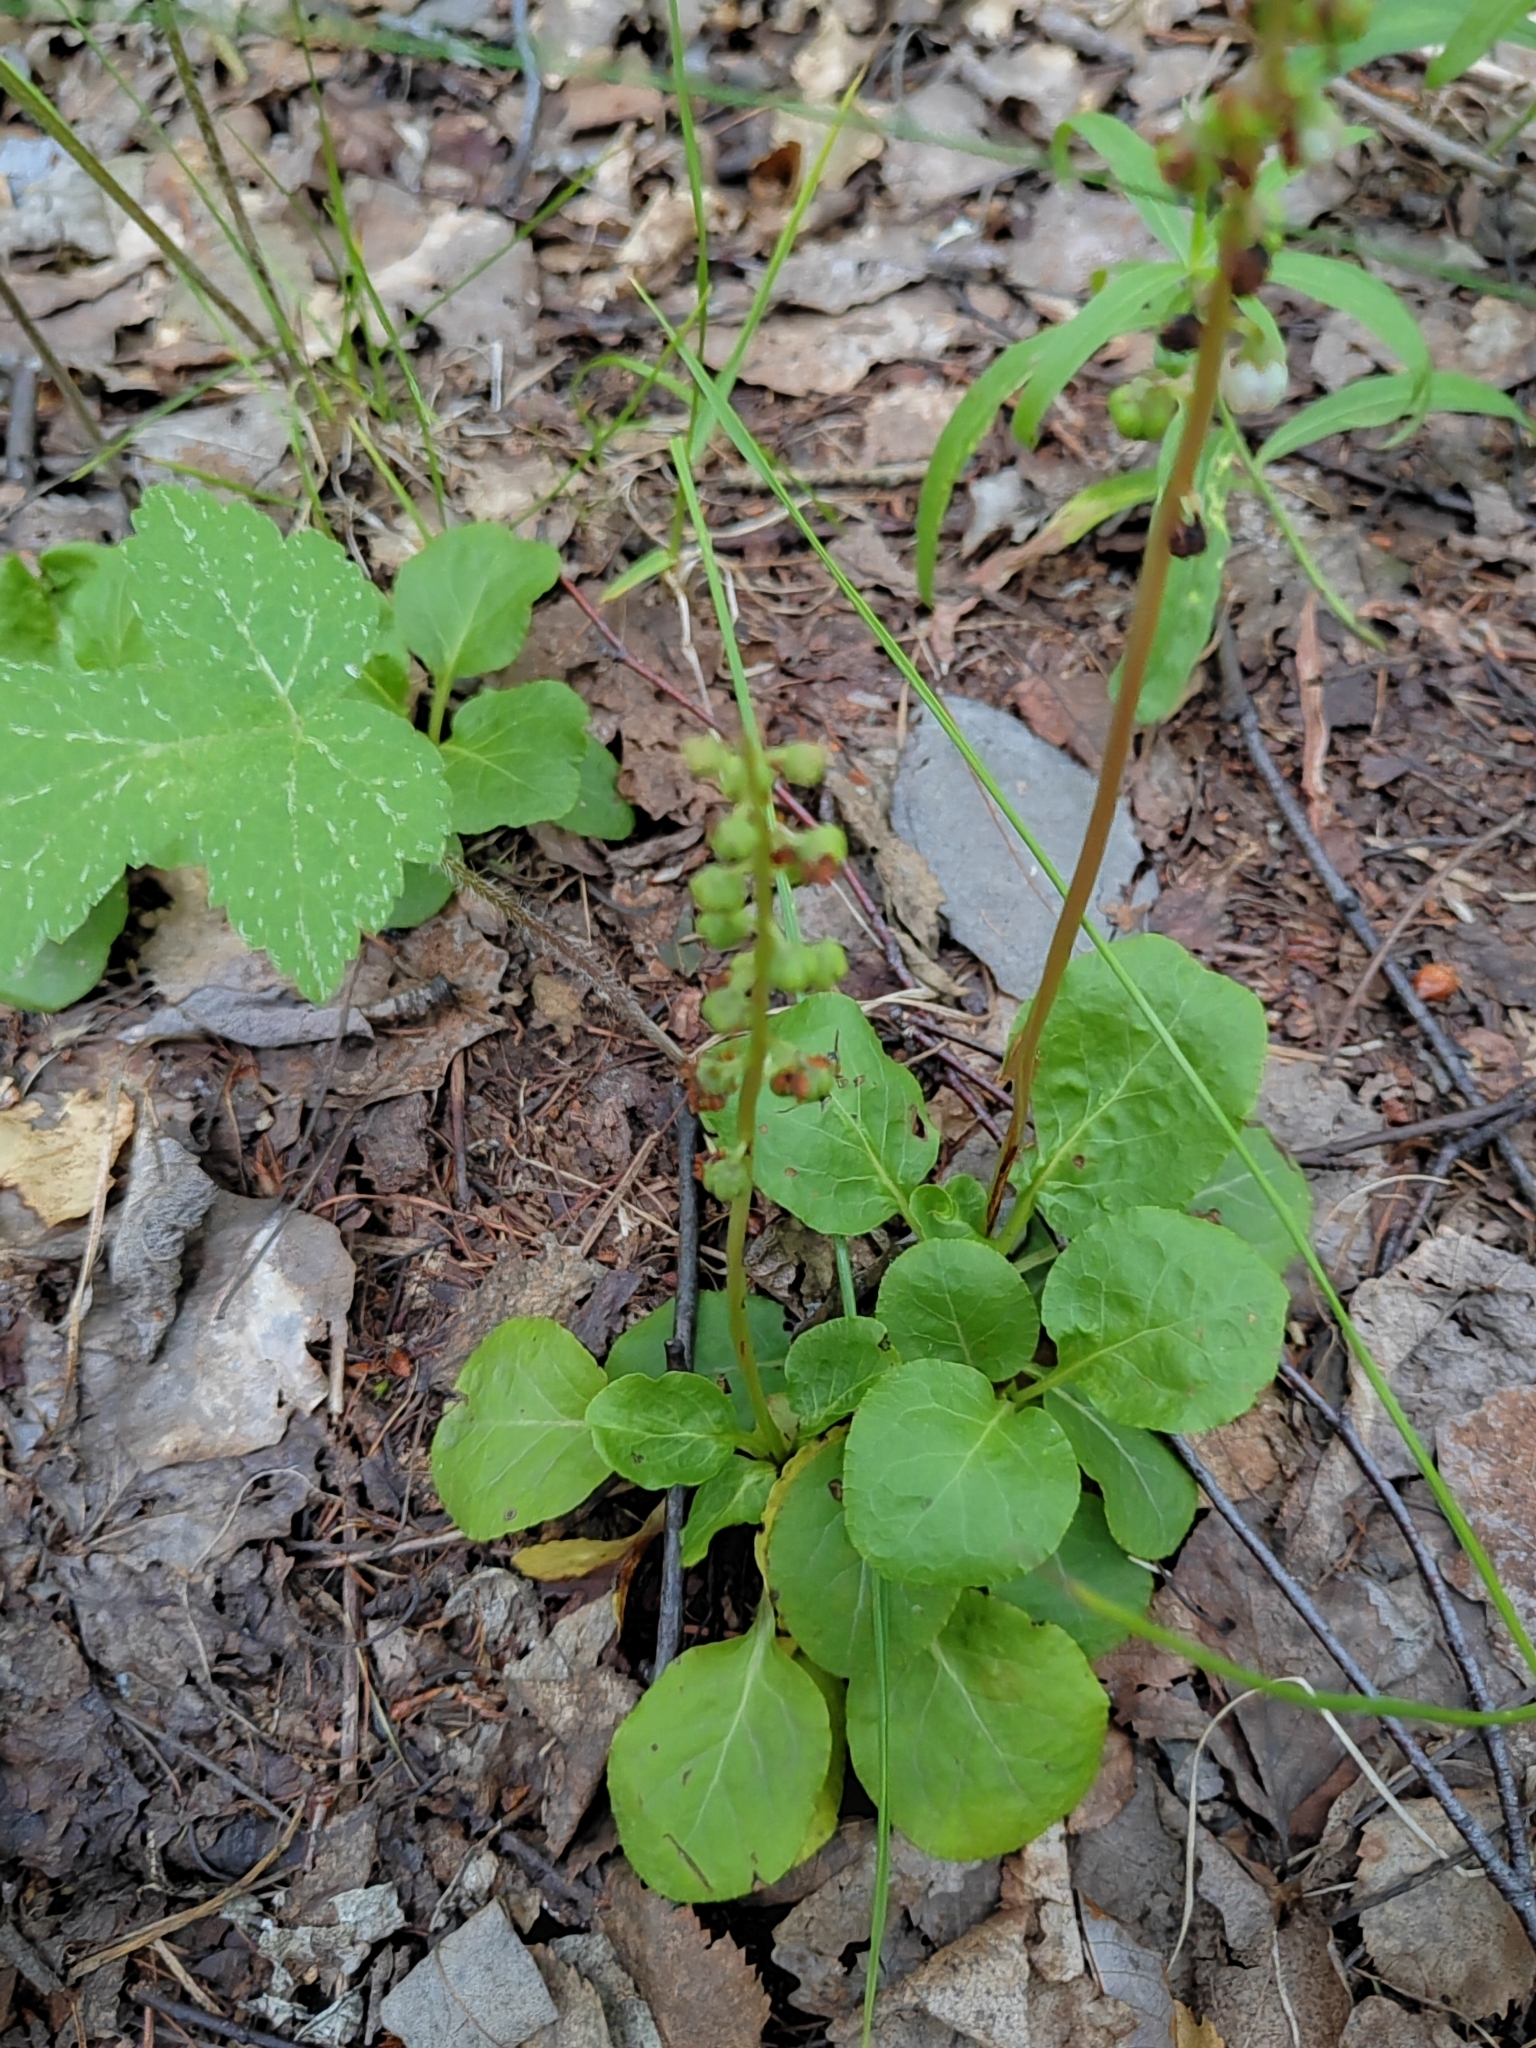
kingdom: Plantae
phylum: Tracheophyta
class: Magnoliopsida
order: Ericales
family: Ericaceae
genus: Pyrola
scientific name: Pyrola minor
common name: Common wintergreen
